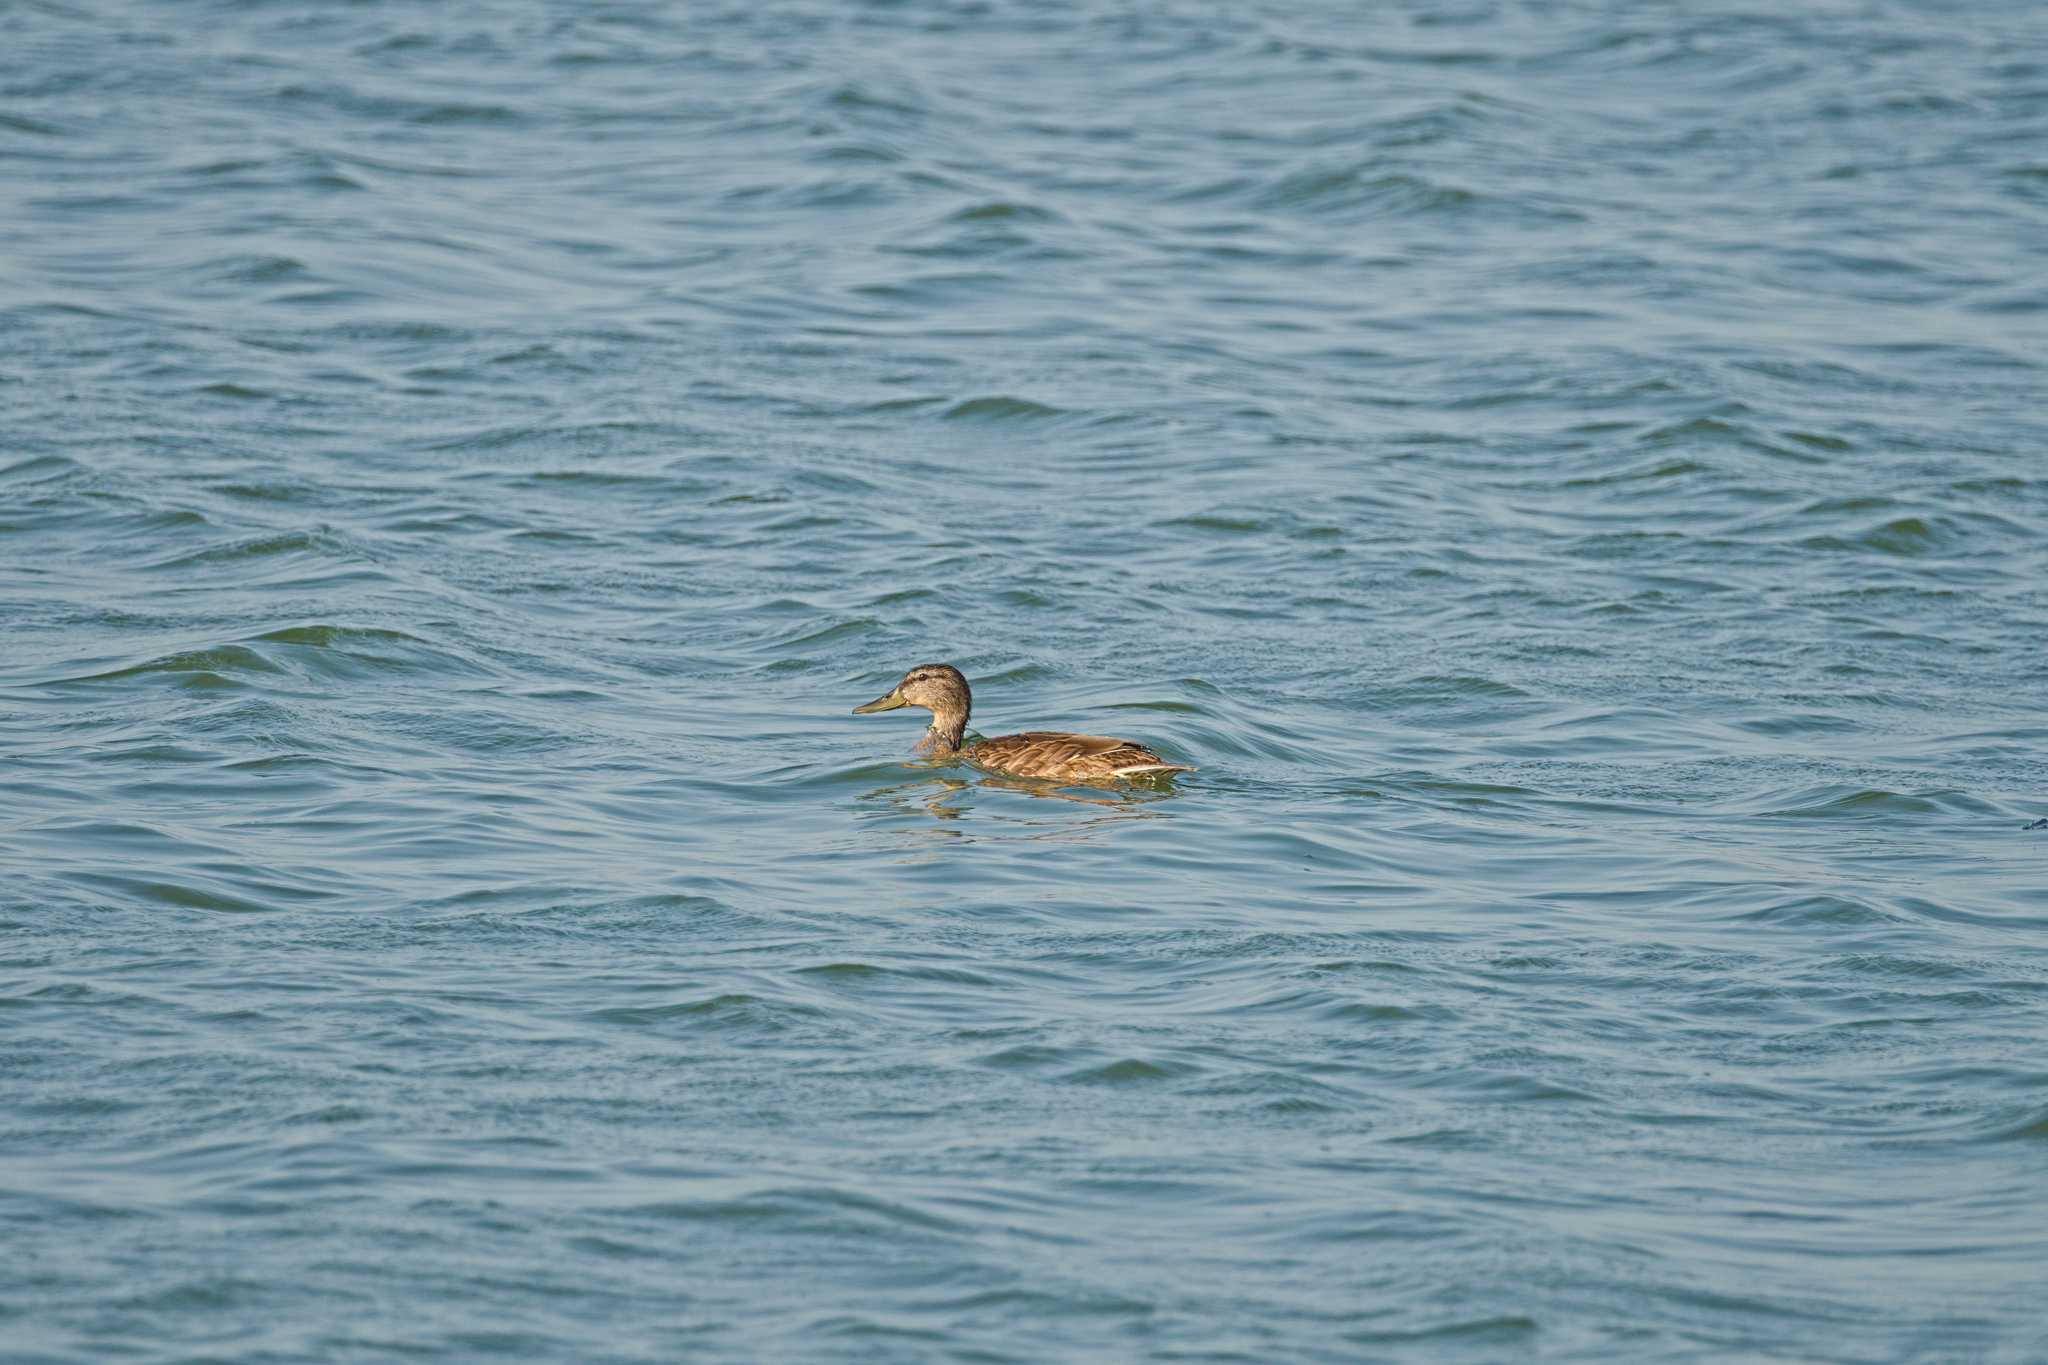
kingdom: Animalia
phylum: Chordata
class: Aves
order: Anseriformes
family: Anatidae
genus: Anas
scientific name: Anas platyrhynchos
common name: Mallard
